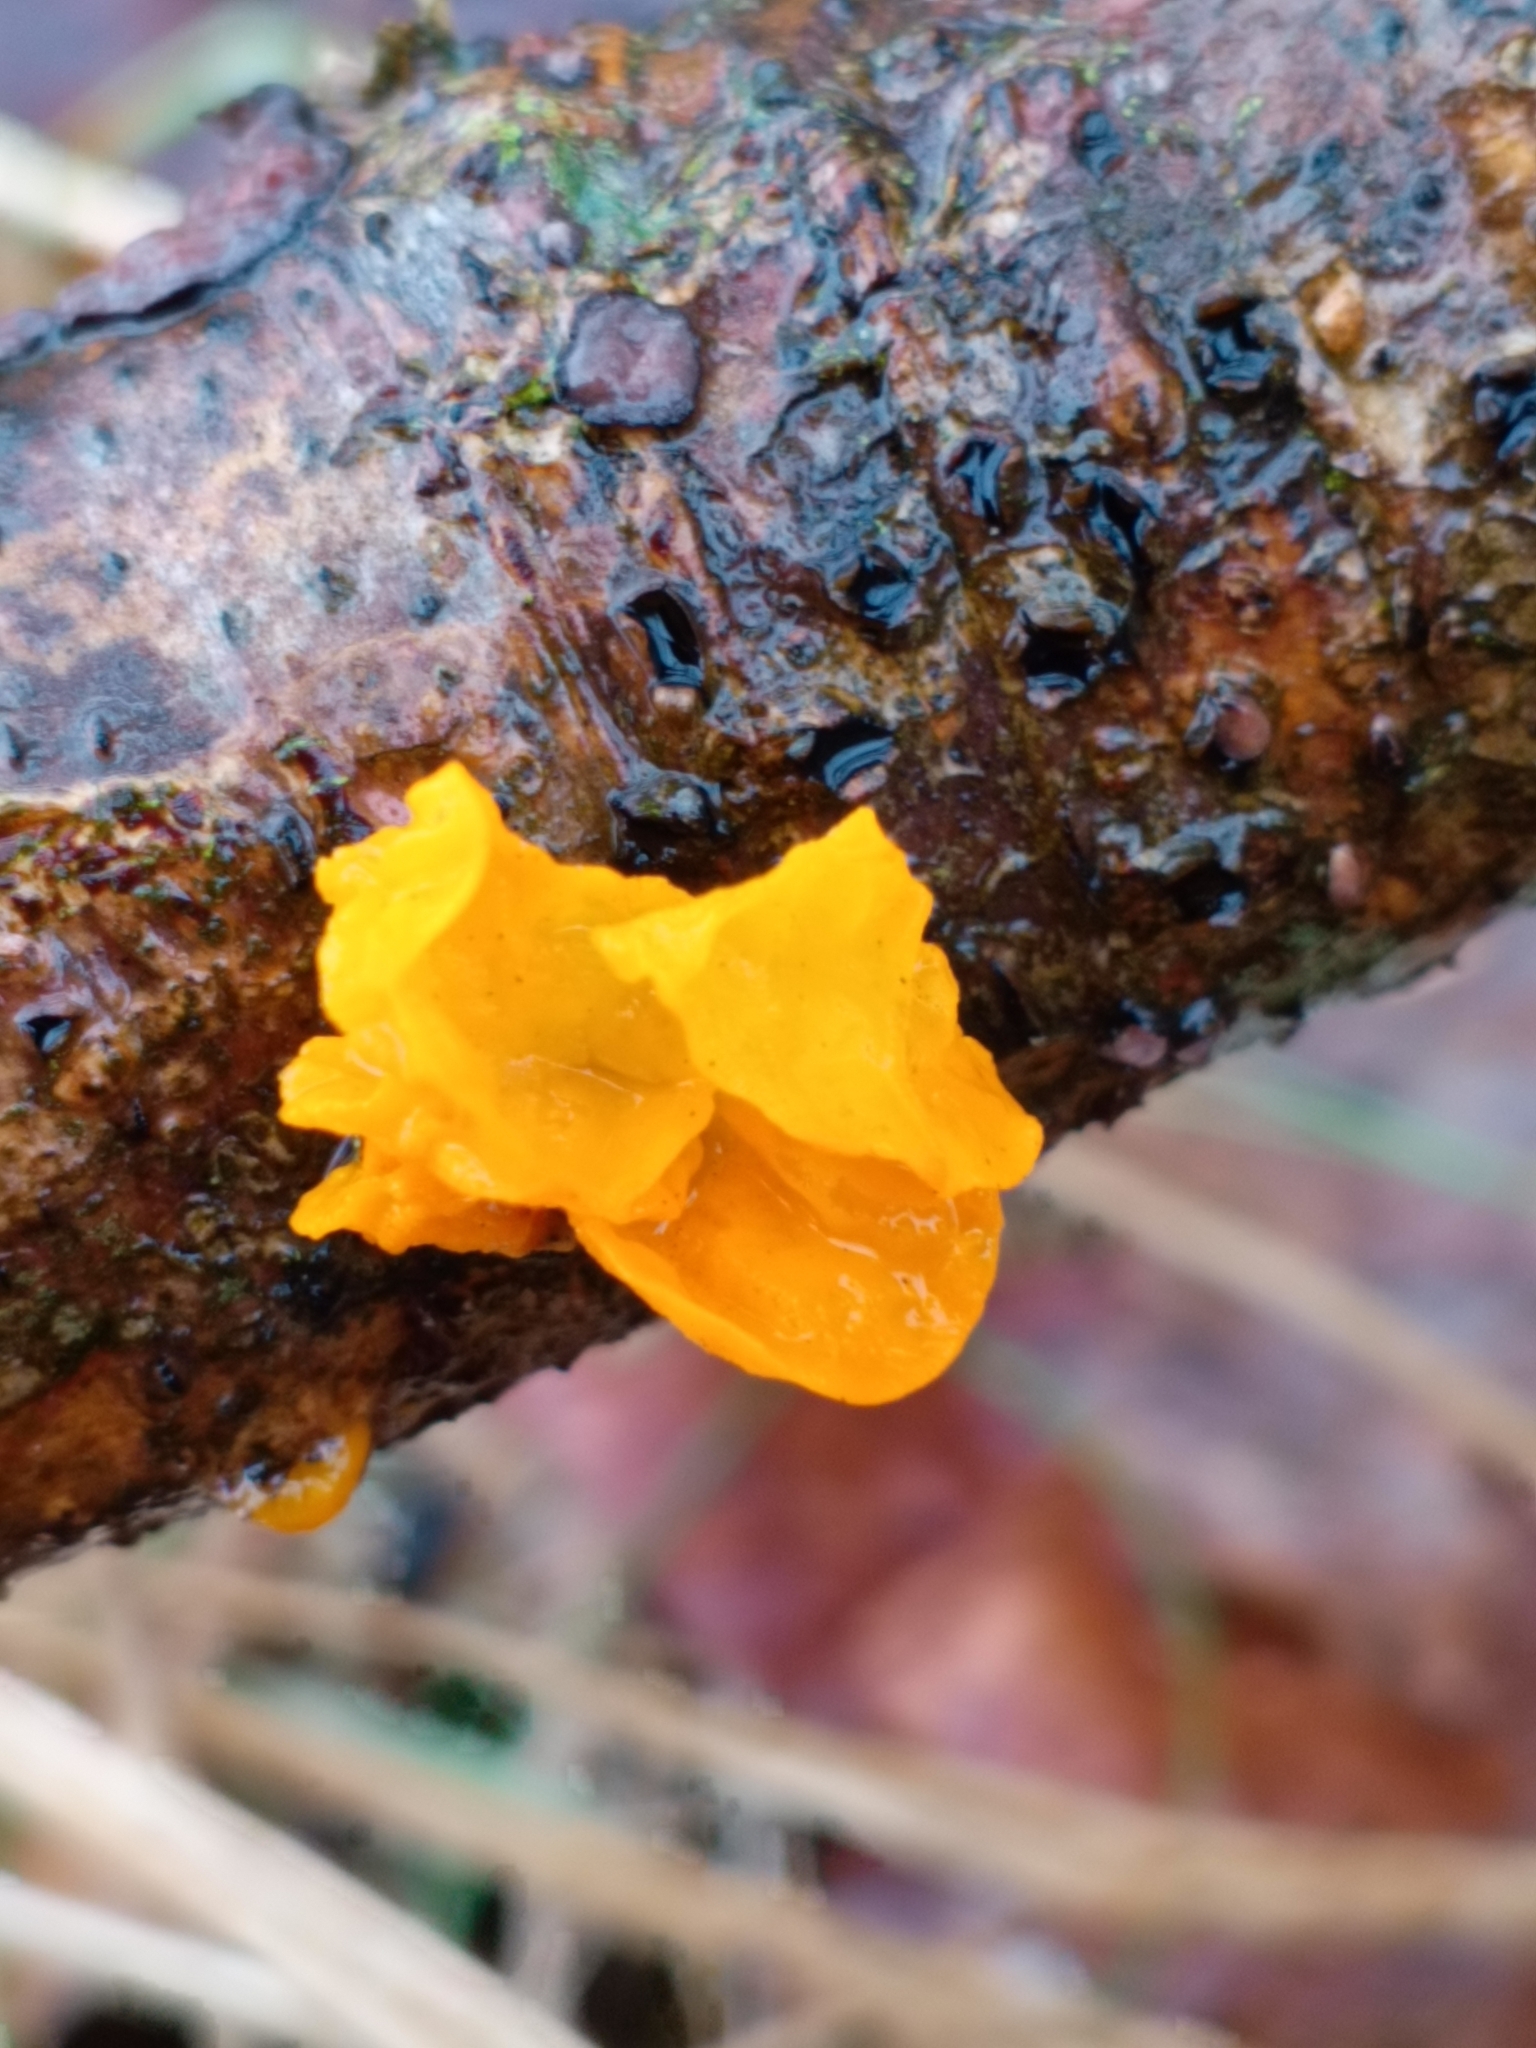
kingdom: Fungi
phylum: Basidiomycota
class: Tremellomycetes
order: Tremellales
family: Tremellaceae
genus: Tremella
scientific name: Tremella mesenterica
